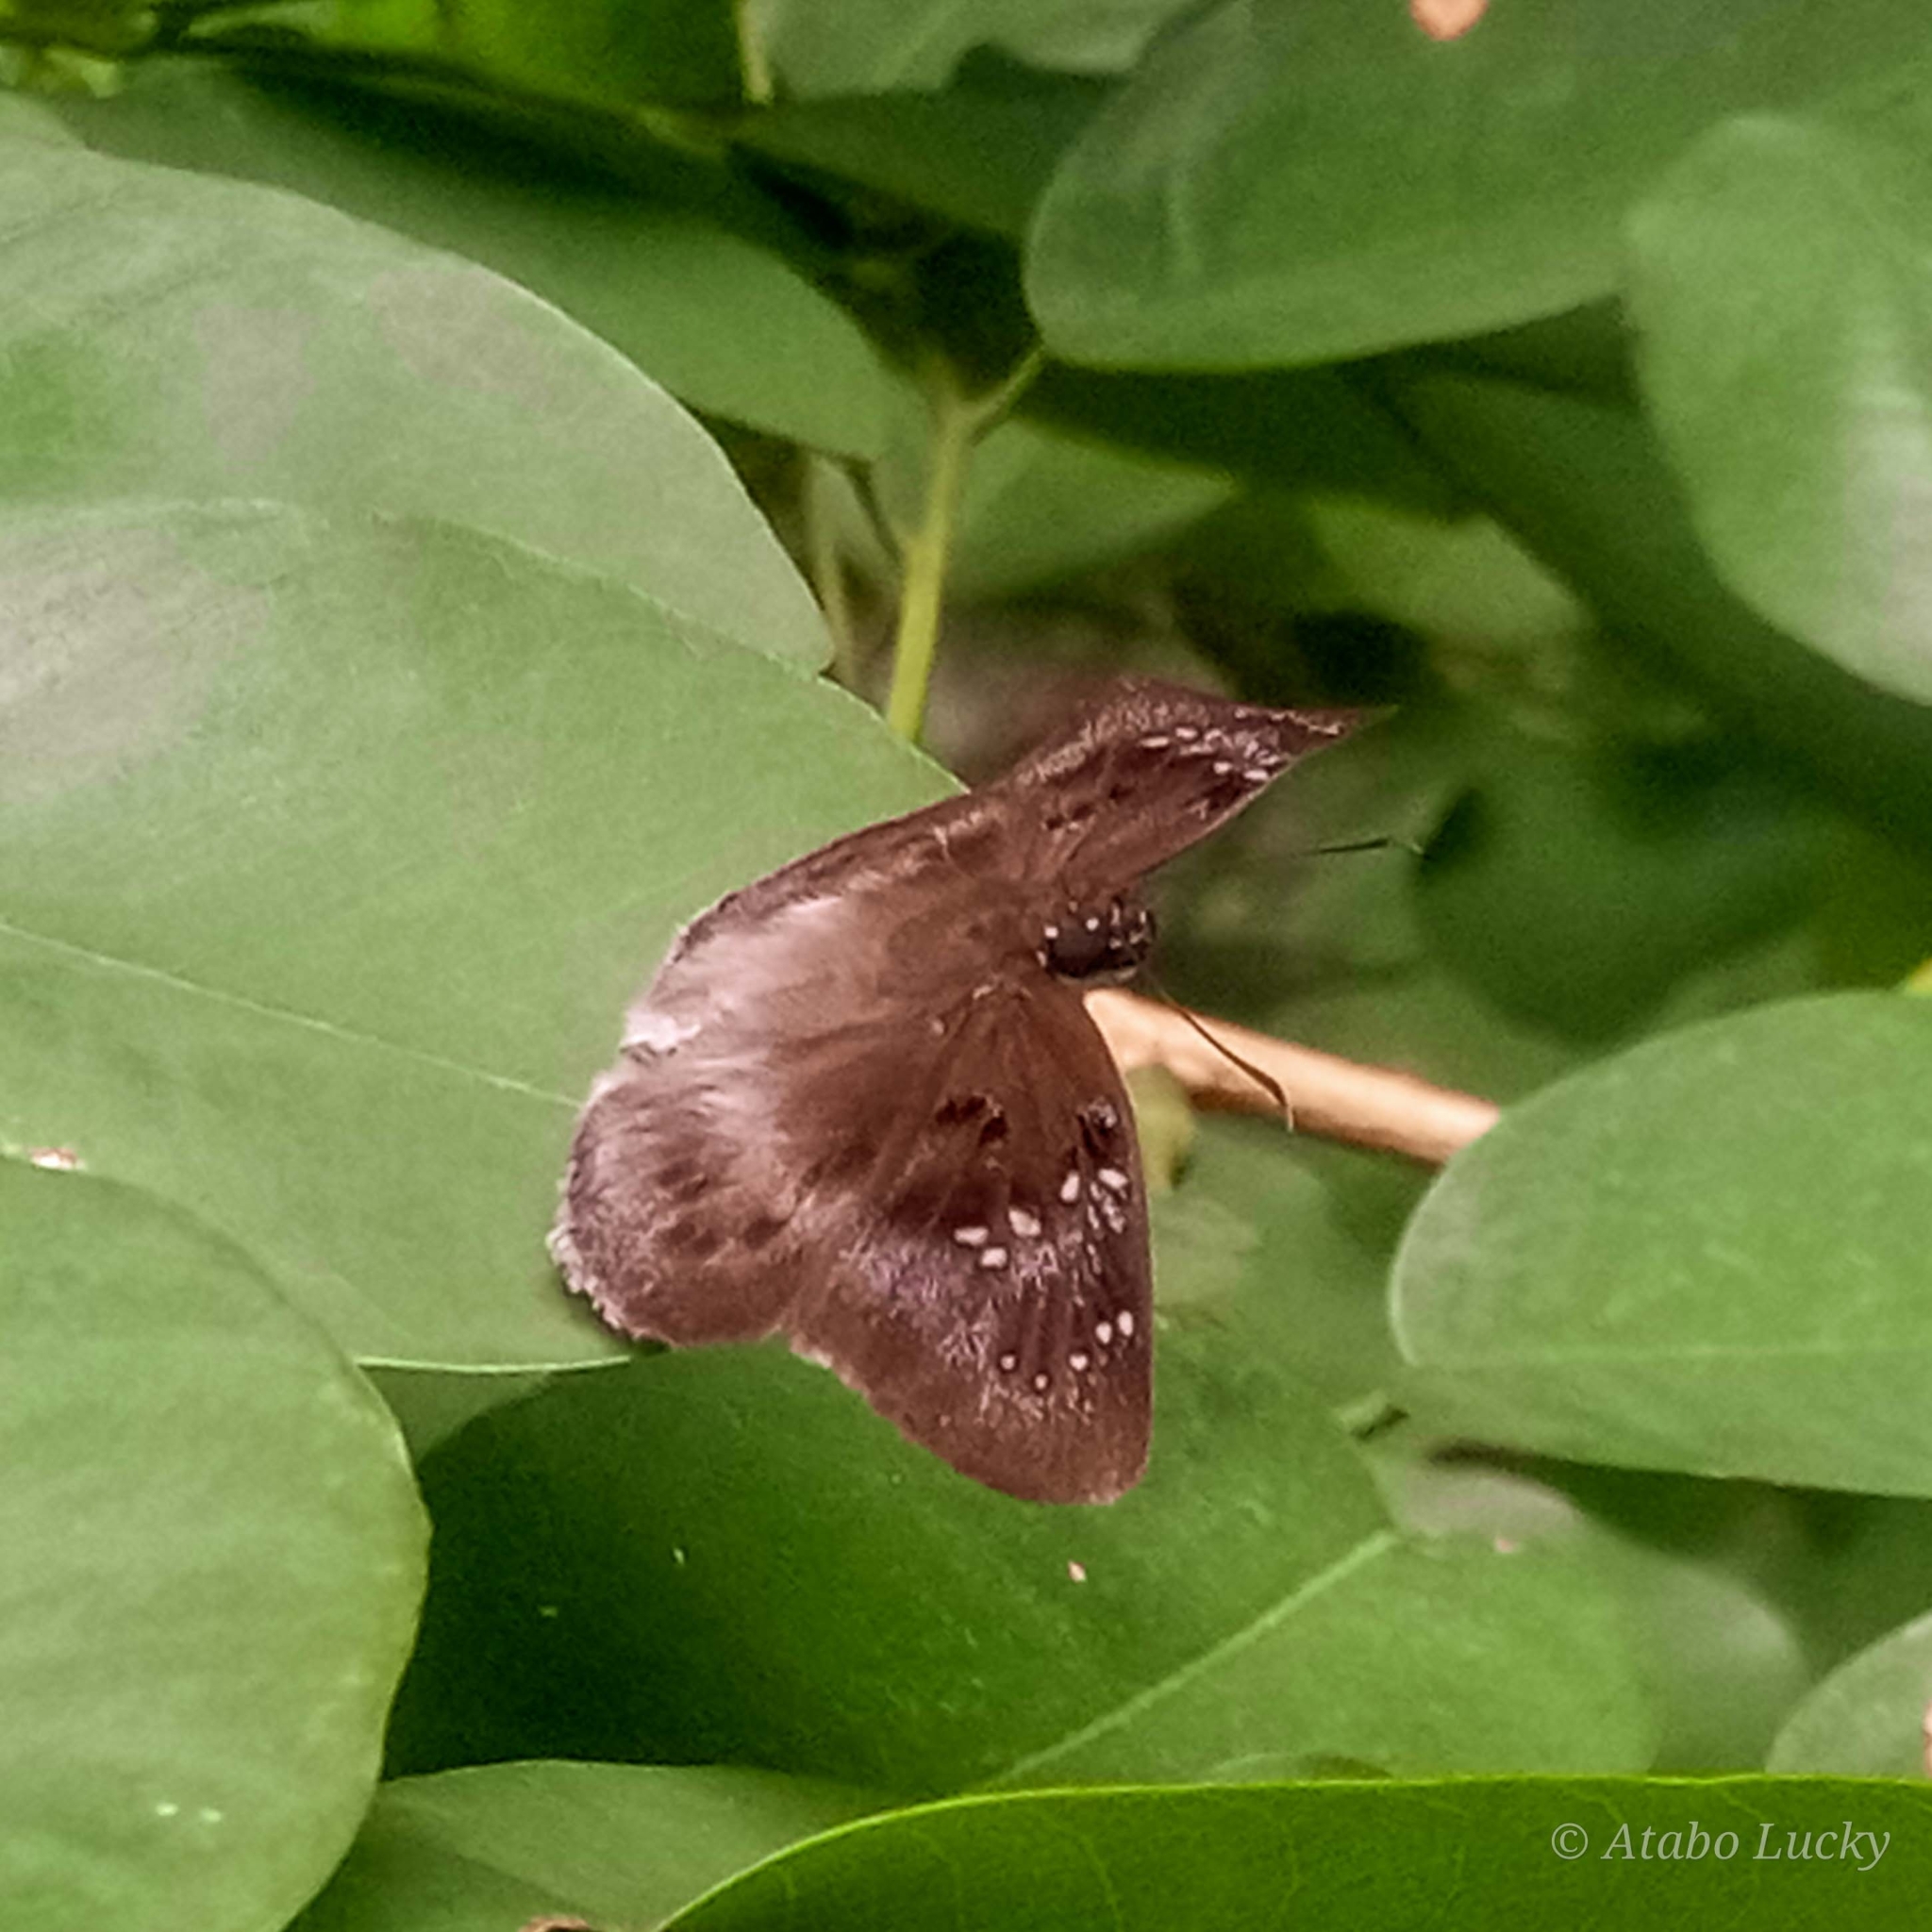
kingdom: Animalia
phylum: Arthropoda
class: Insecta
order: Lepidoptera
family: Hesperiidae
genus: Tagiades
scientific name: Tagiades flesus
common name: Clouded flat
